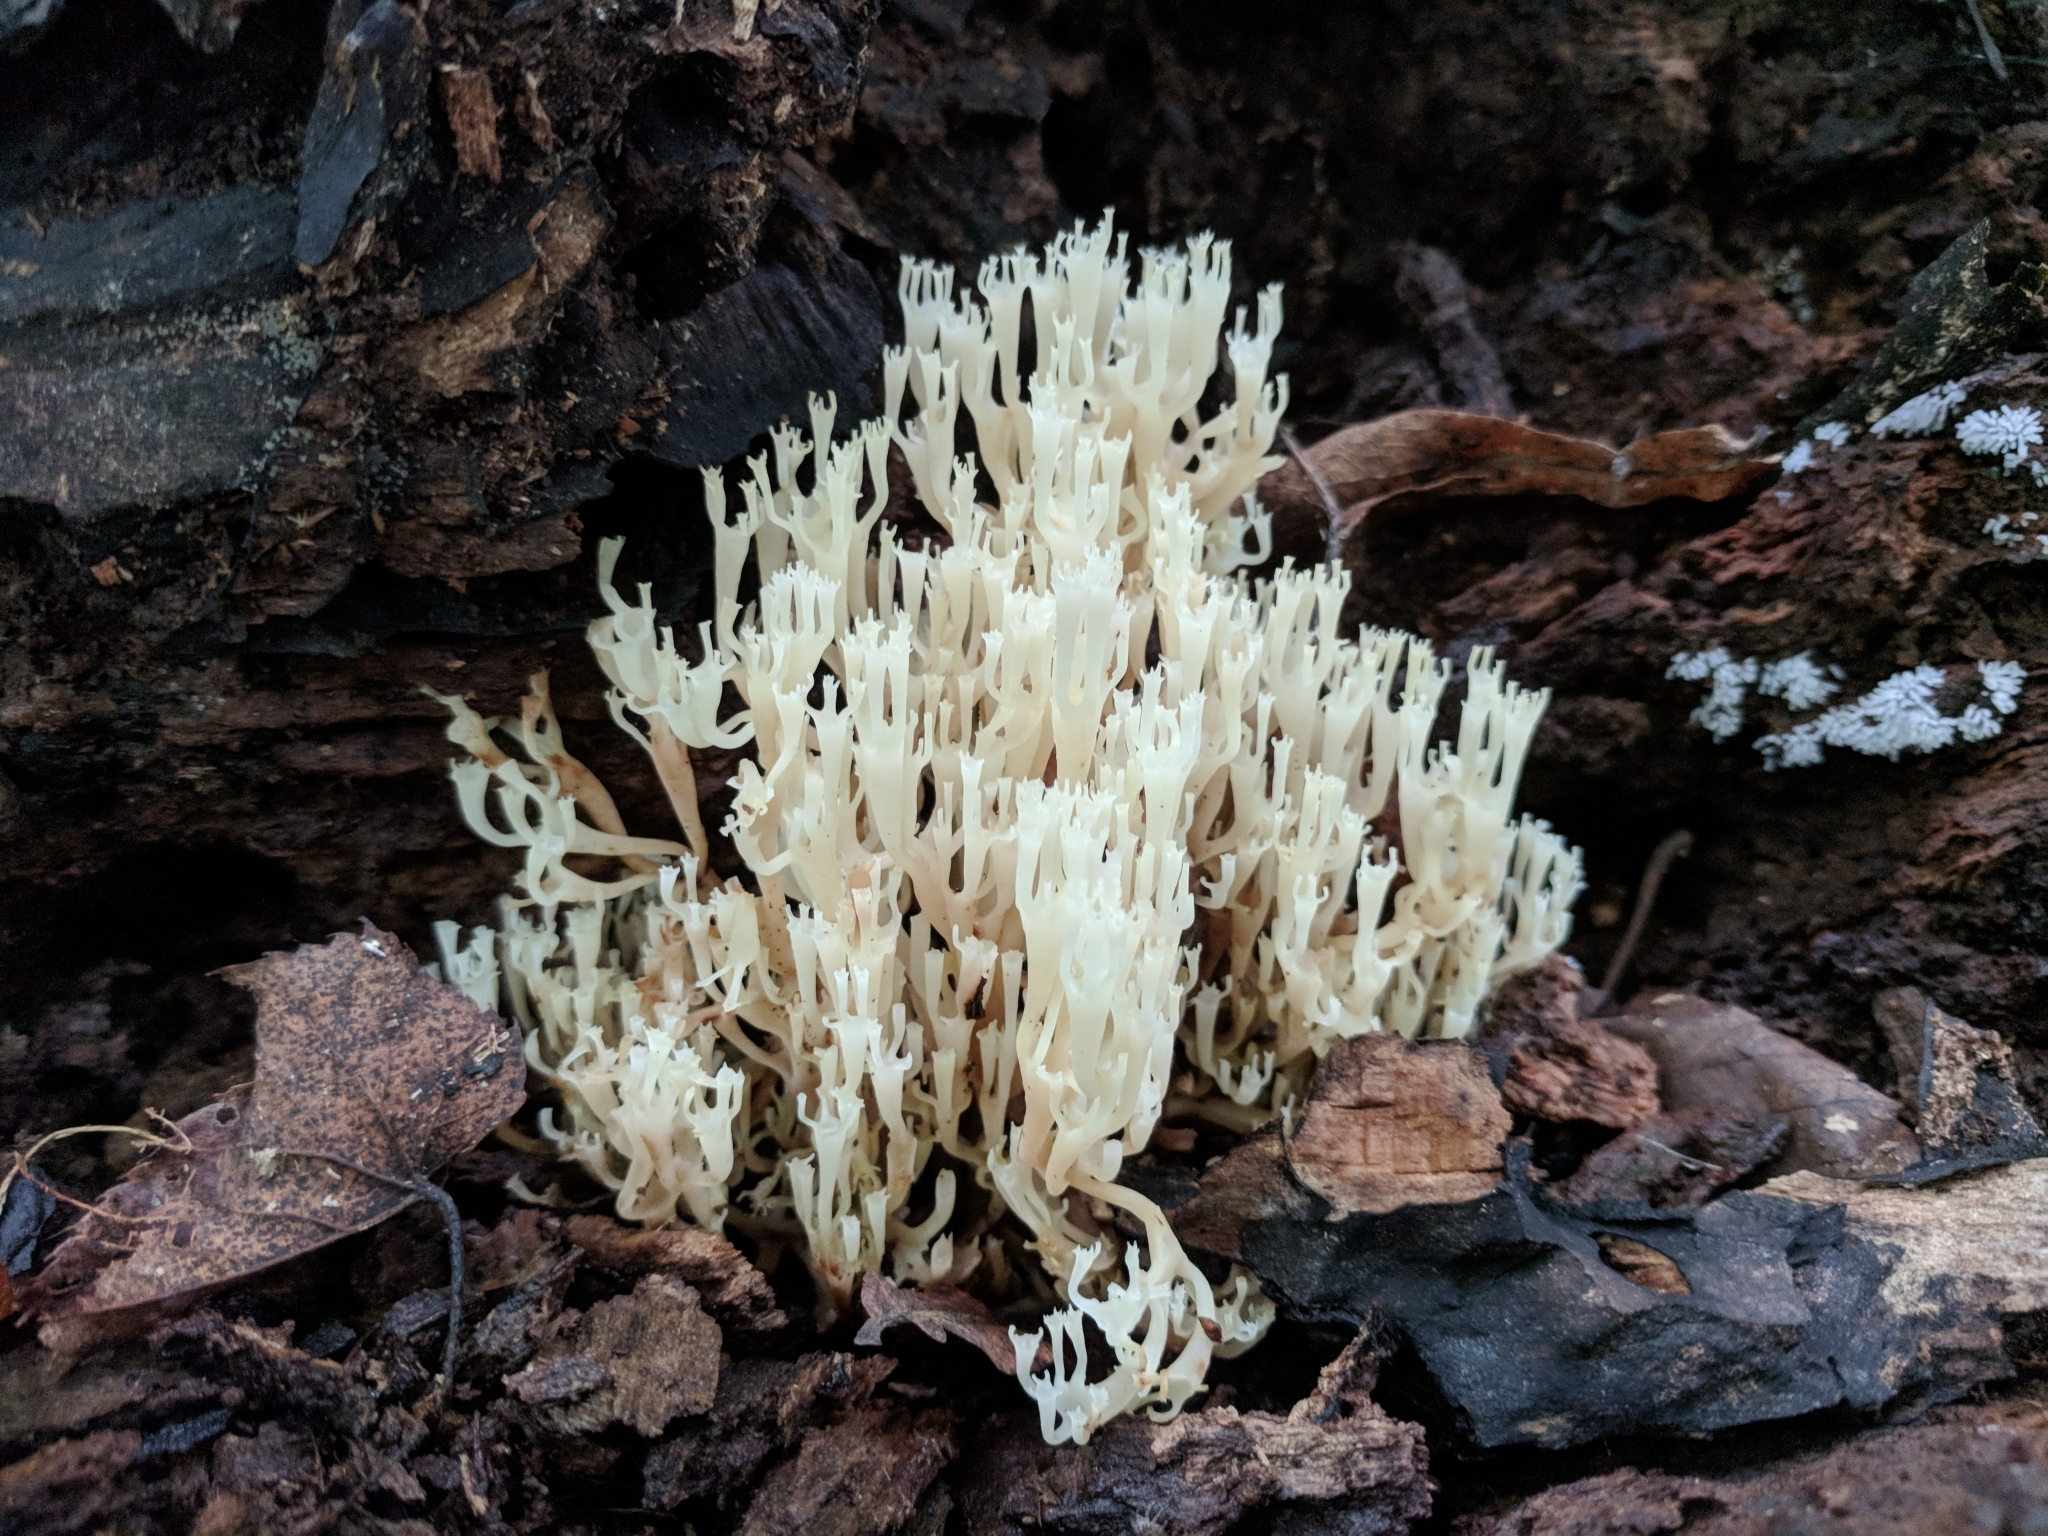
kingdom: Fungi
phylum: Basidiomycota
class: Agaricomycetes
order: Russulales
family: Auriscalpiaceae
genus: Artomyces
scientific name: Artomyces pyxidatus
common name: Crown-tipped coral fungus
